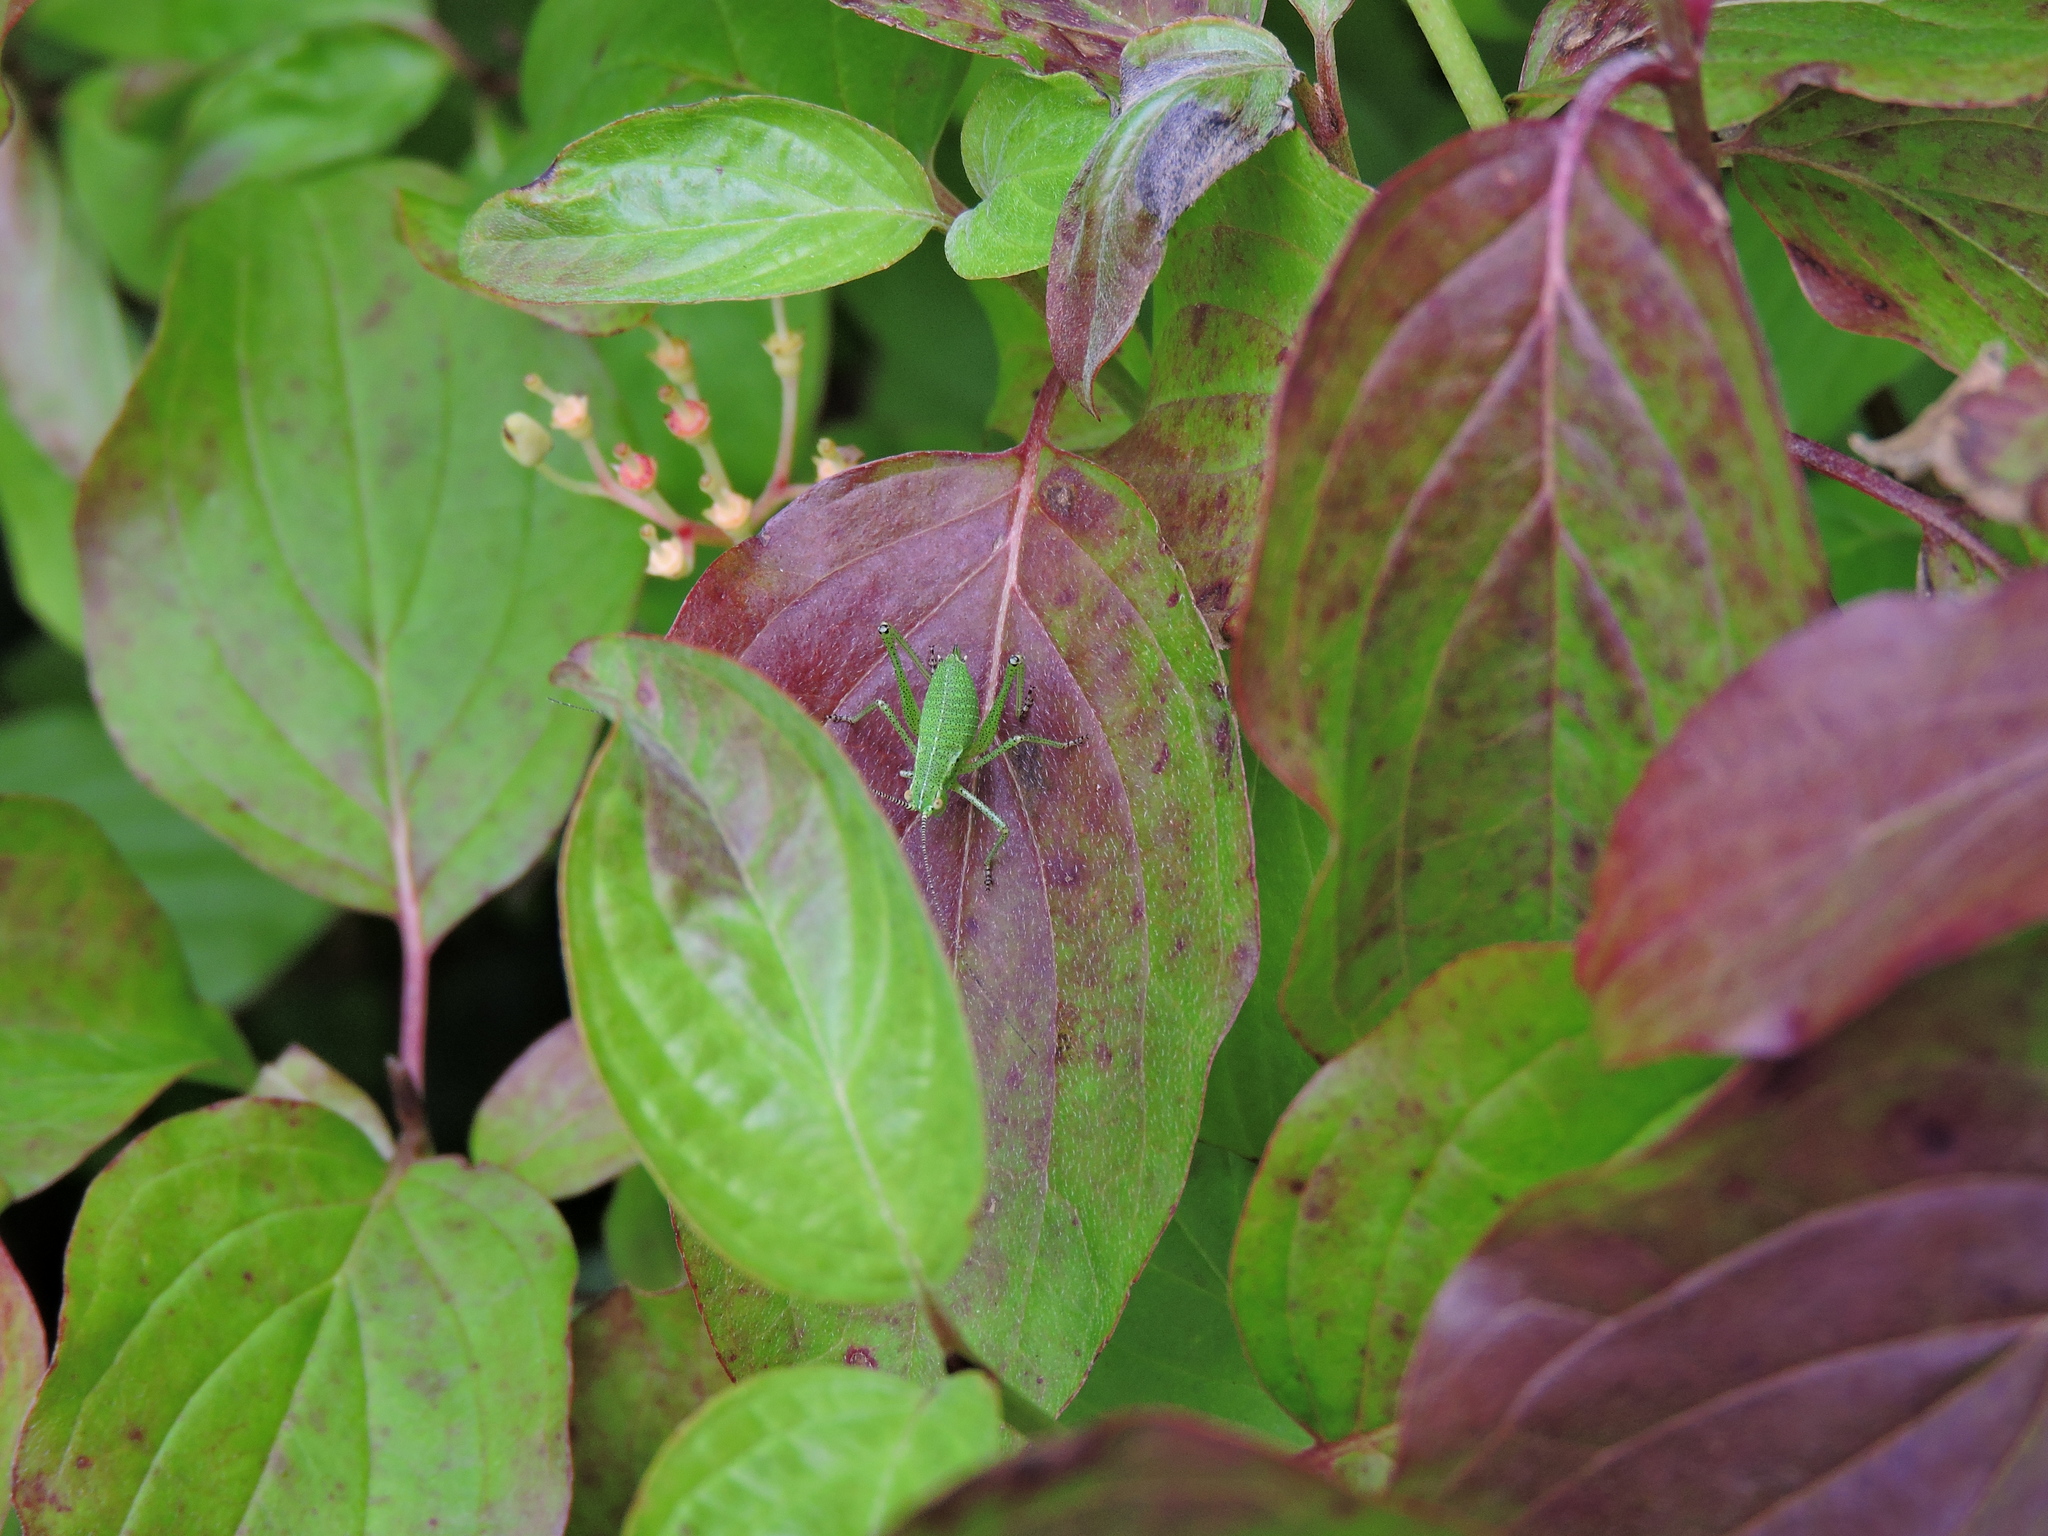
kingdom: Animalia
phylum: Arthropoda
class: Insecta
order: Orthoptera
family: Tettigoniidae
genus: Leptophyes
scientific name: Leptophyes punctatissima
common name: Speckled bush-cricket
